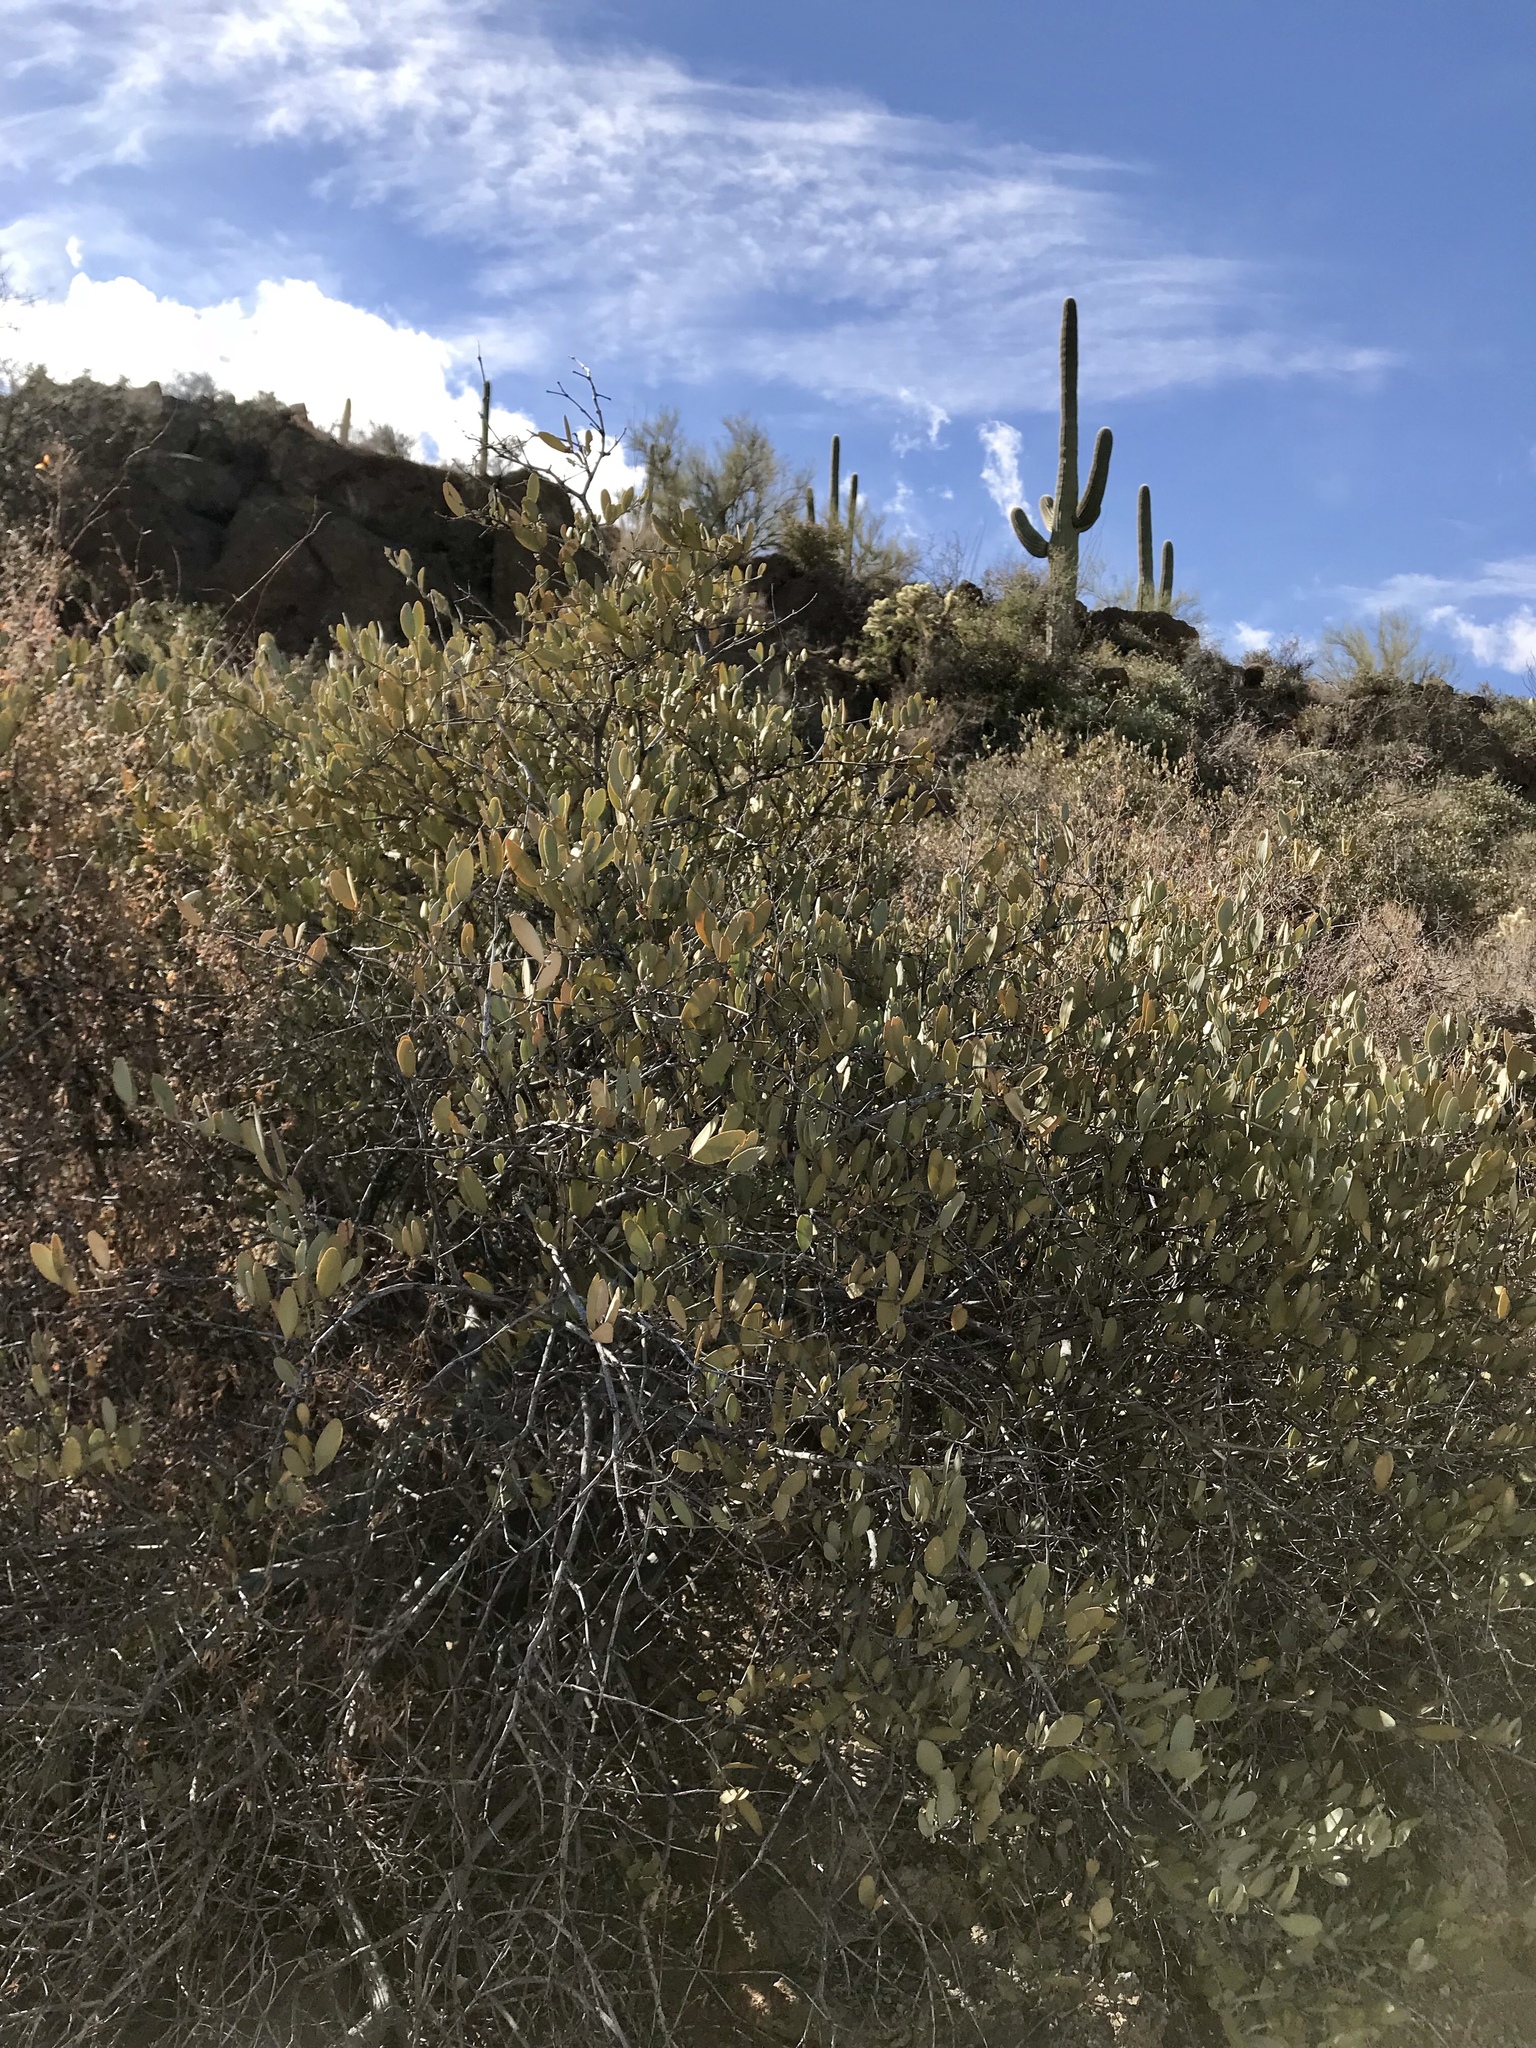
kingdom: Plantae
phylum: Tracheophyta
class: Magnoliopsida
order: Caryophyllales
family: Simmondsiaceae
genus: Simmondsia
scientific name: Simmondsia chinensis
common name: Jojoba
